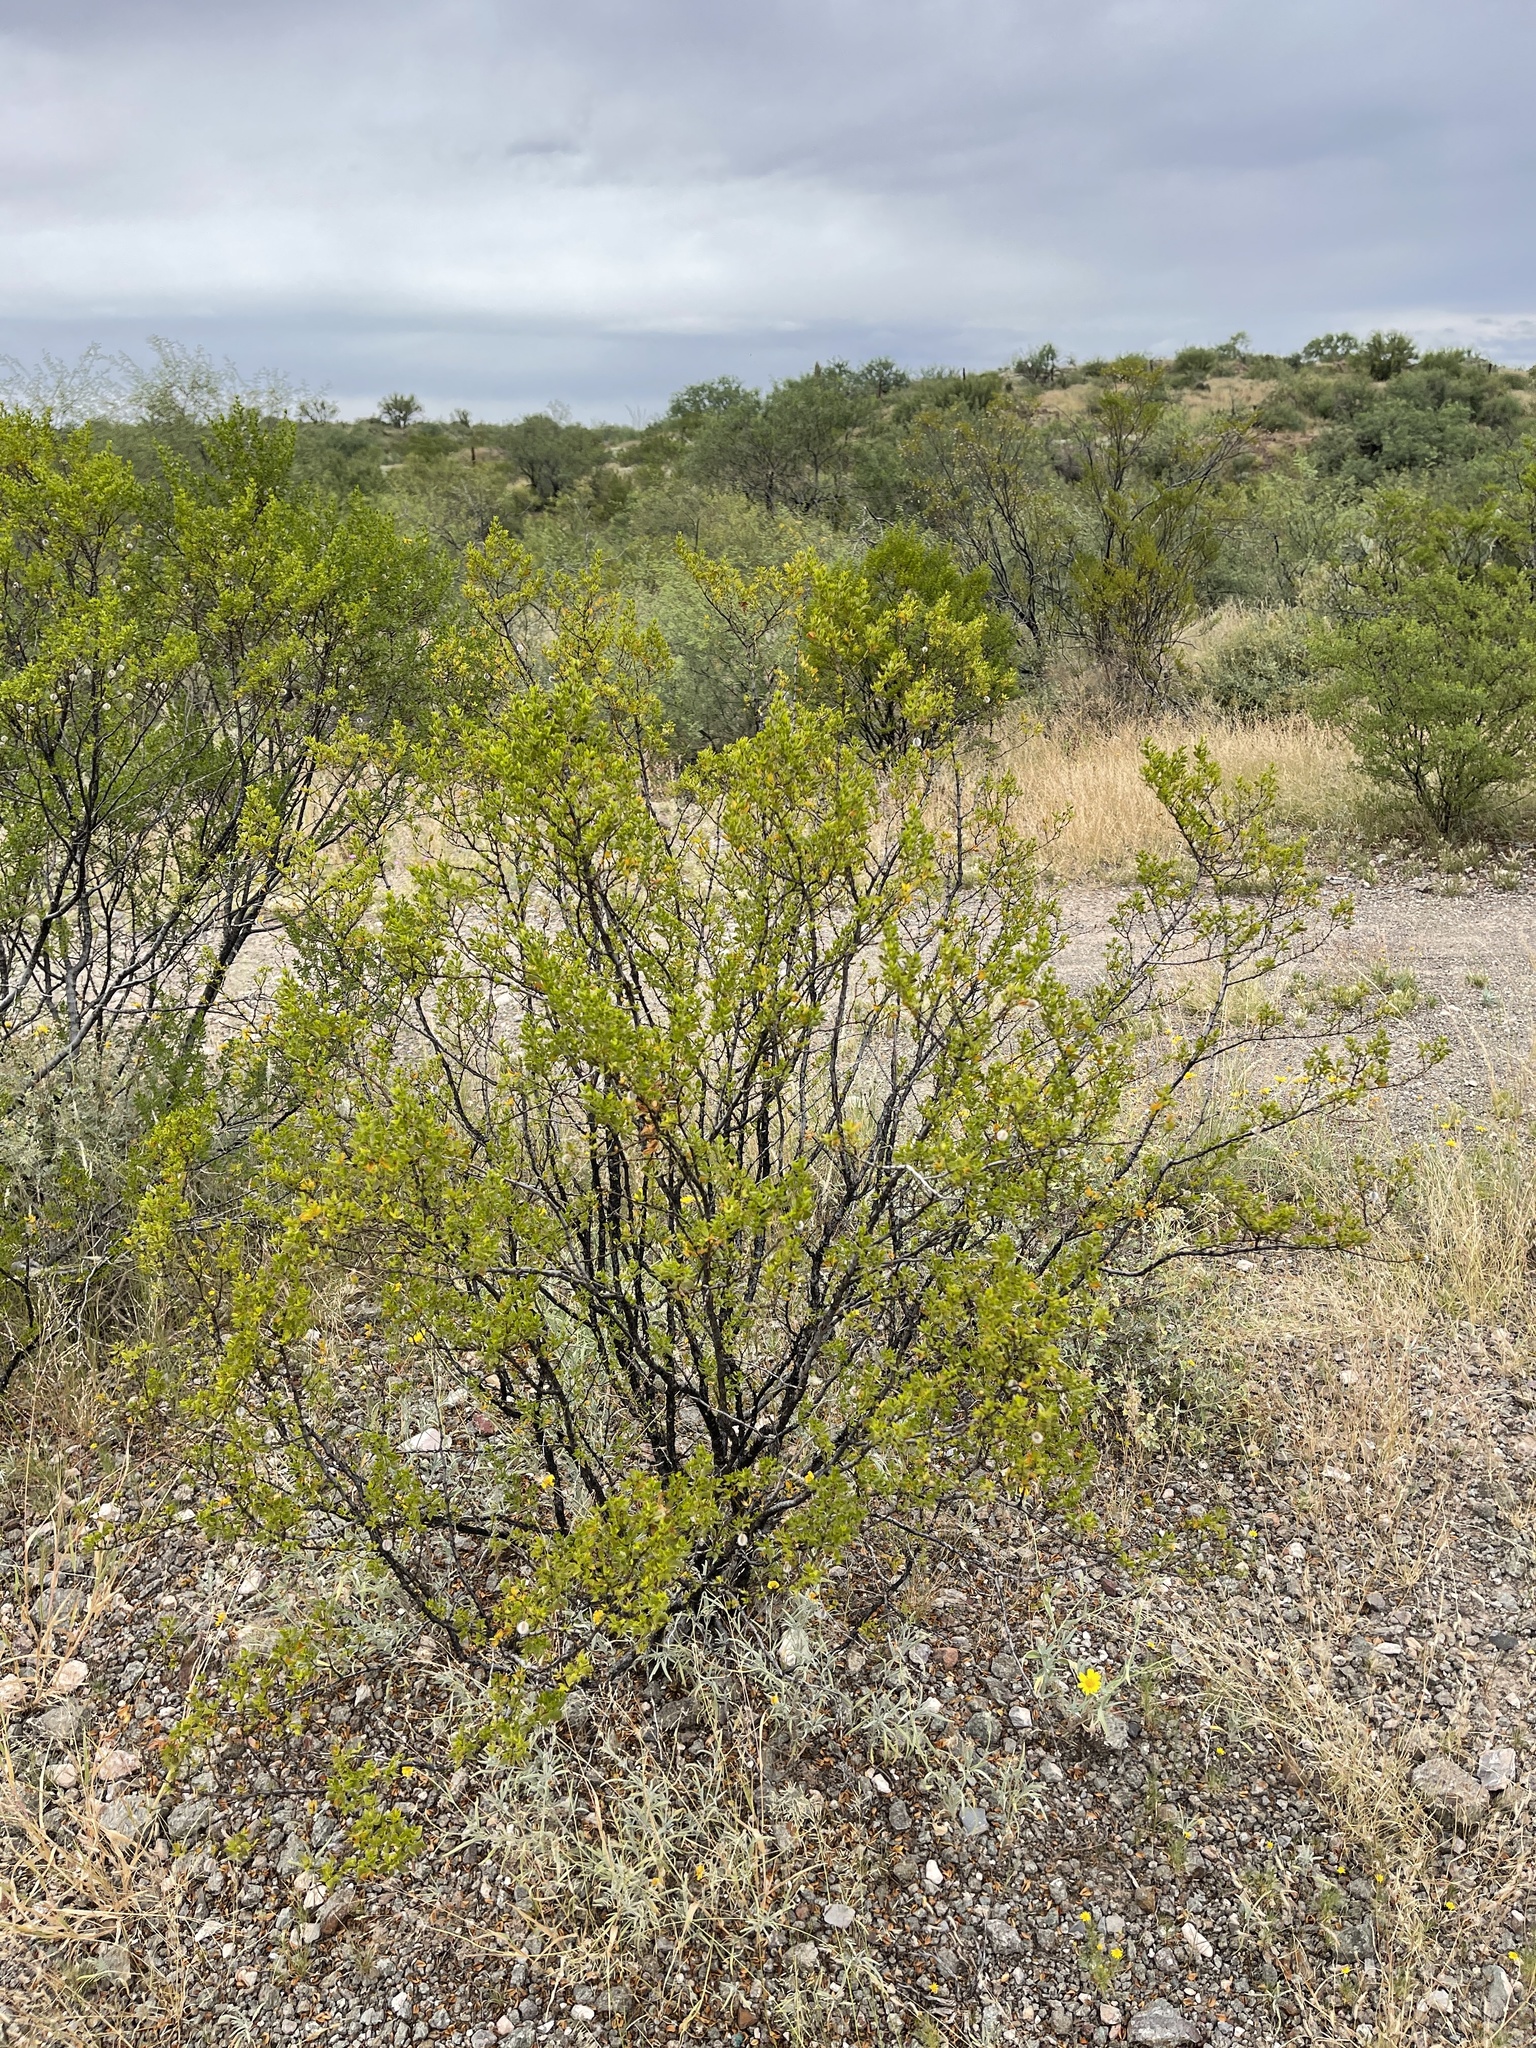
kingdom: Plantae
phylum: Tracheophyta
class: Magnoliopsida
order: Zygophyllales
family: Zygophyllaceae
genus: Larrea
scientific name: Larrea tridentata
